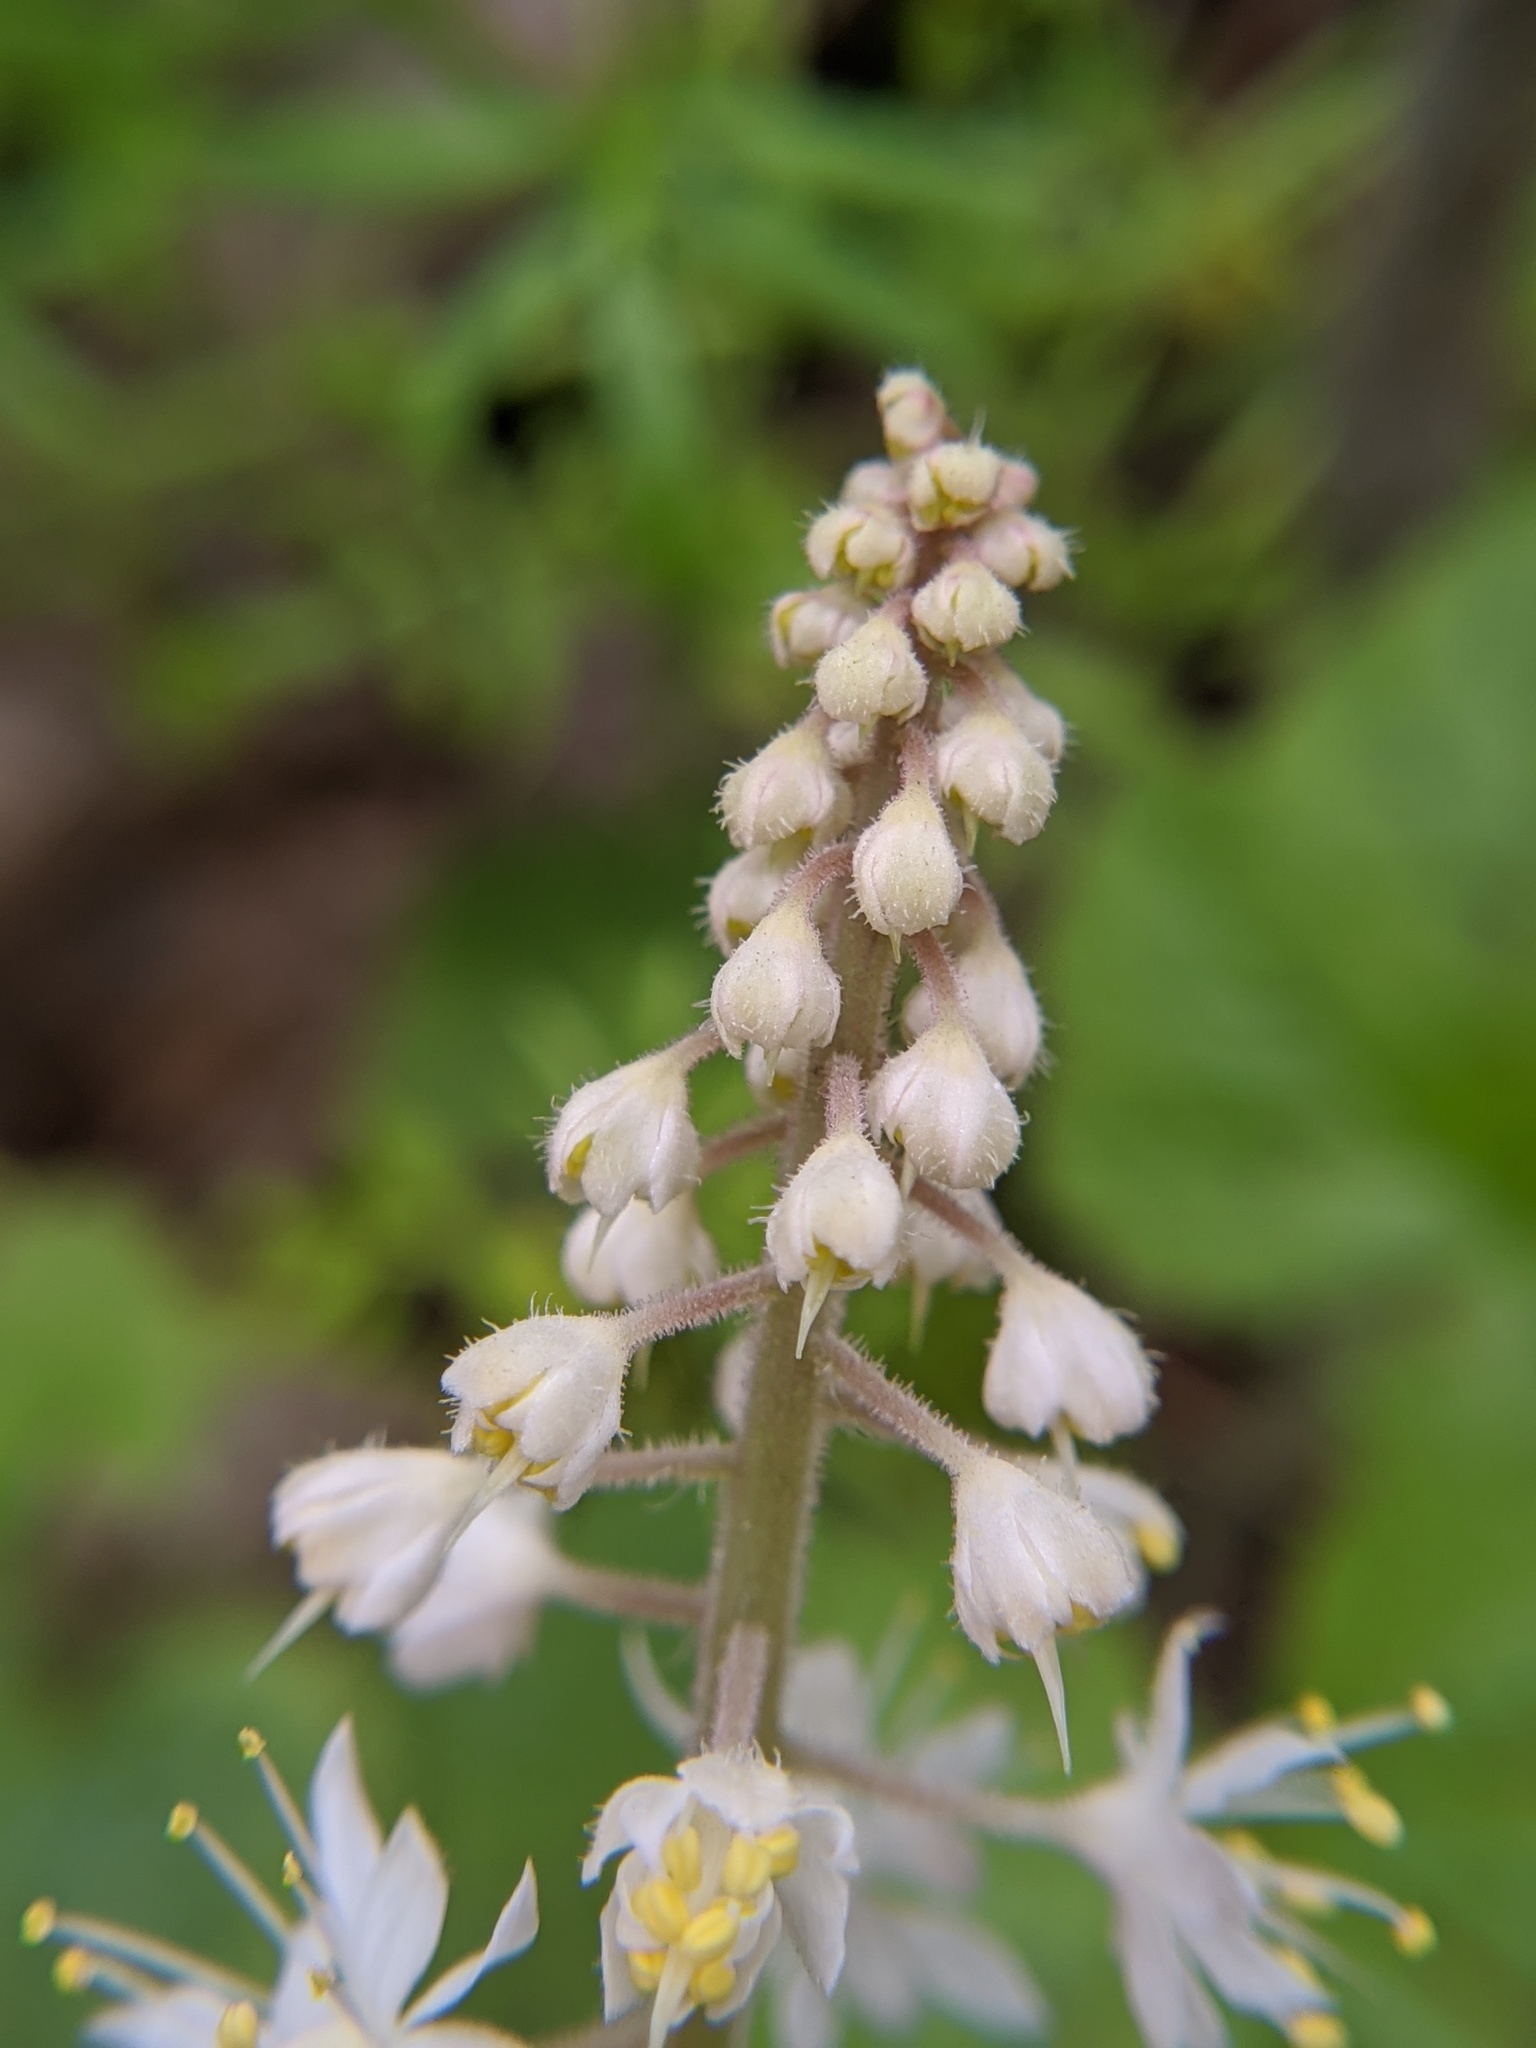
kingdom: Plantae
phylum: Tracheophyta
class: Magnoliopsida
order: Saxifragales
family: Saxifragaceae
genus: Tiarella
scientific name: Tiarella stolonifera
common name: Stoloniferous foamflower
